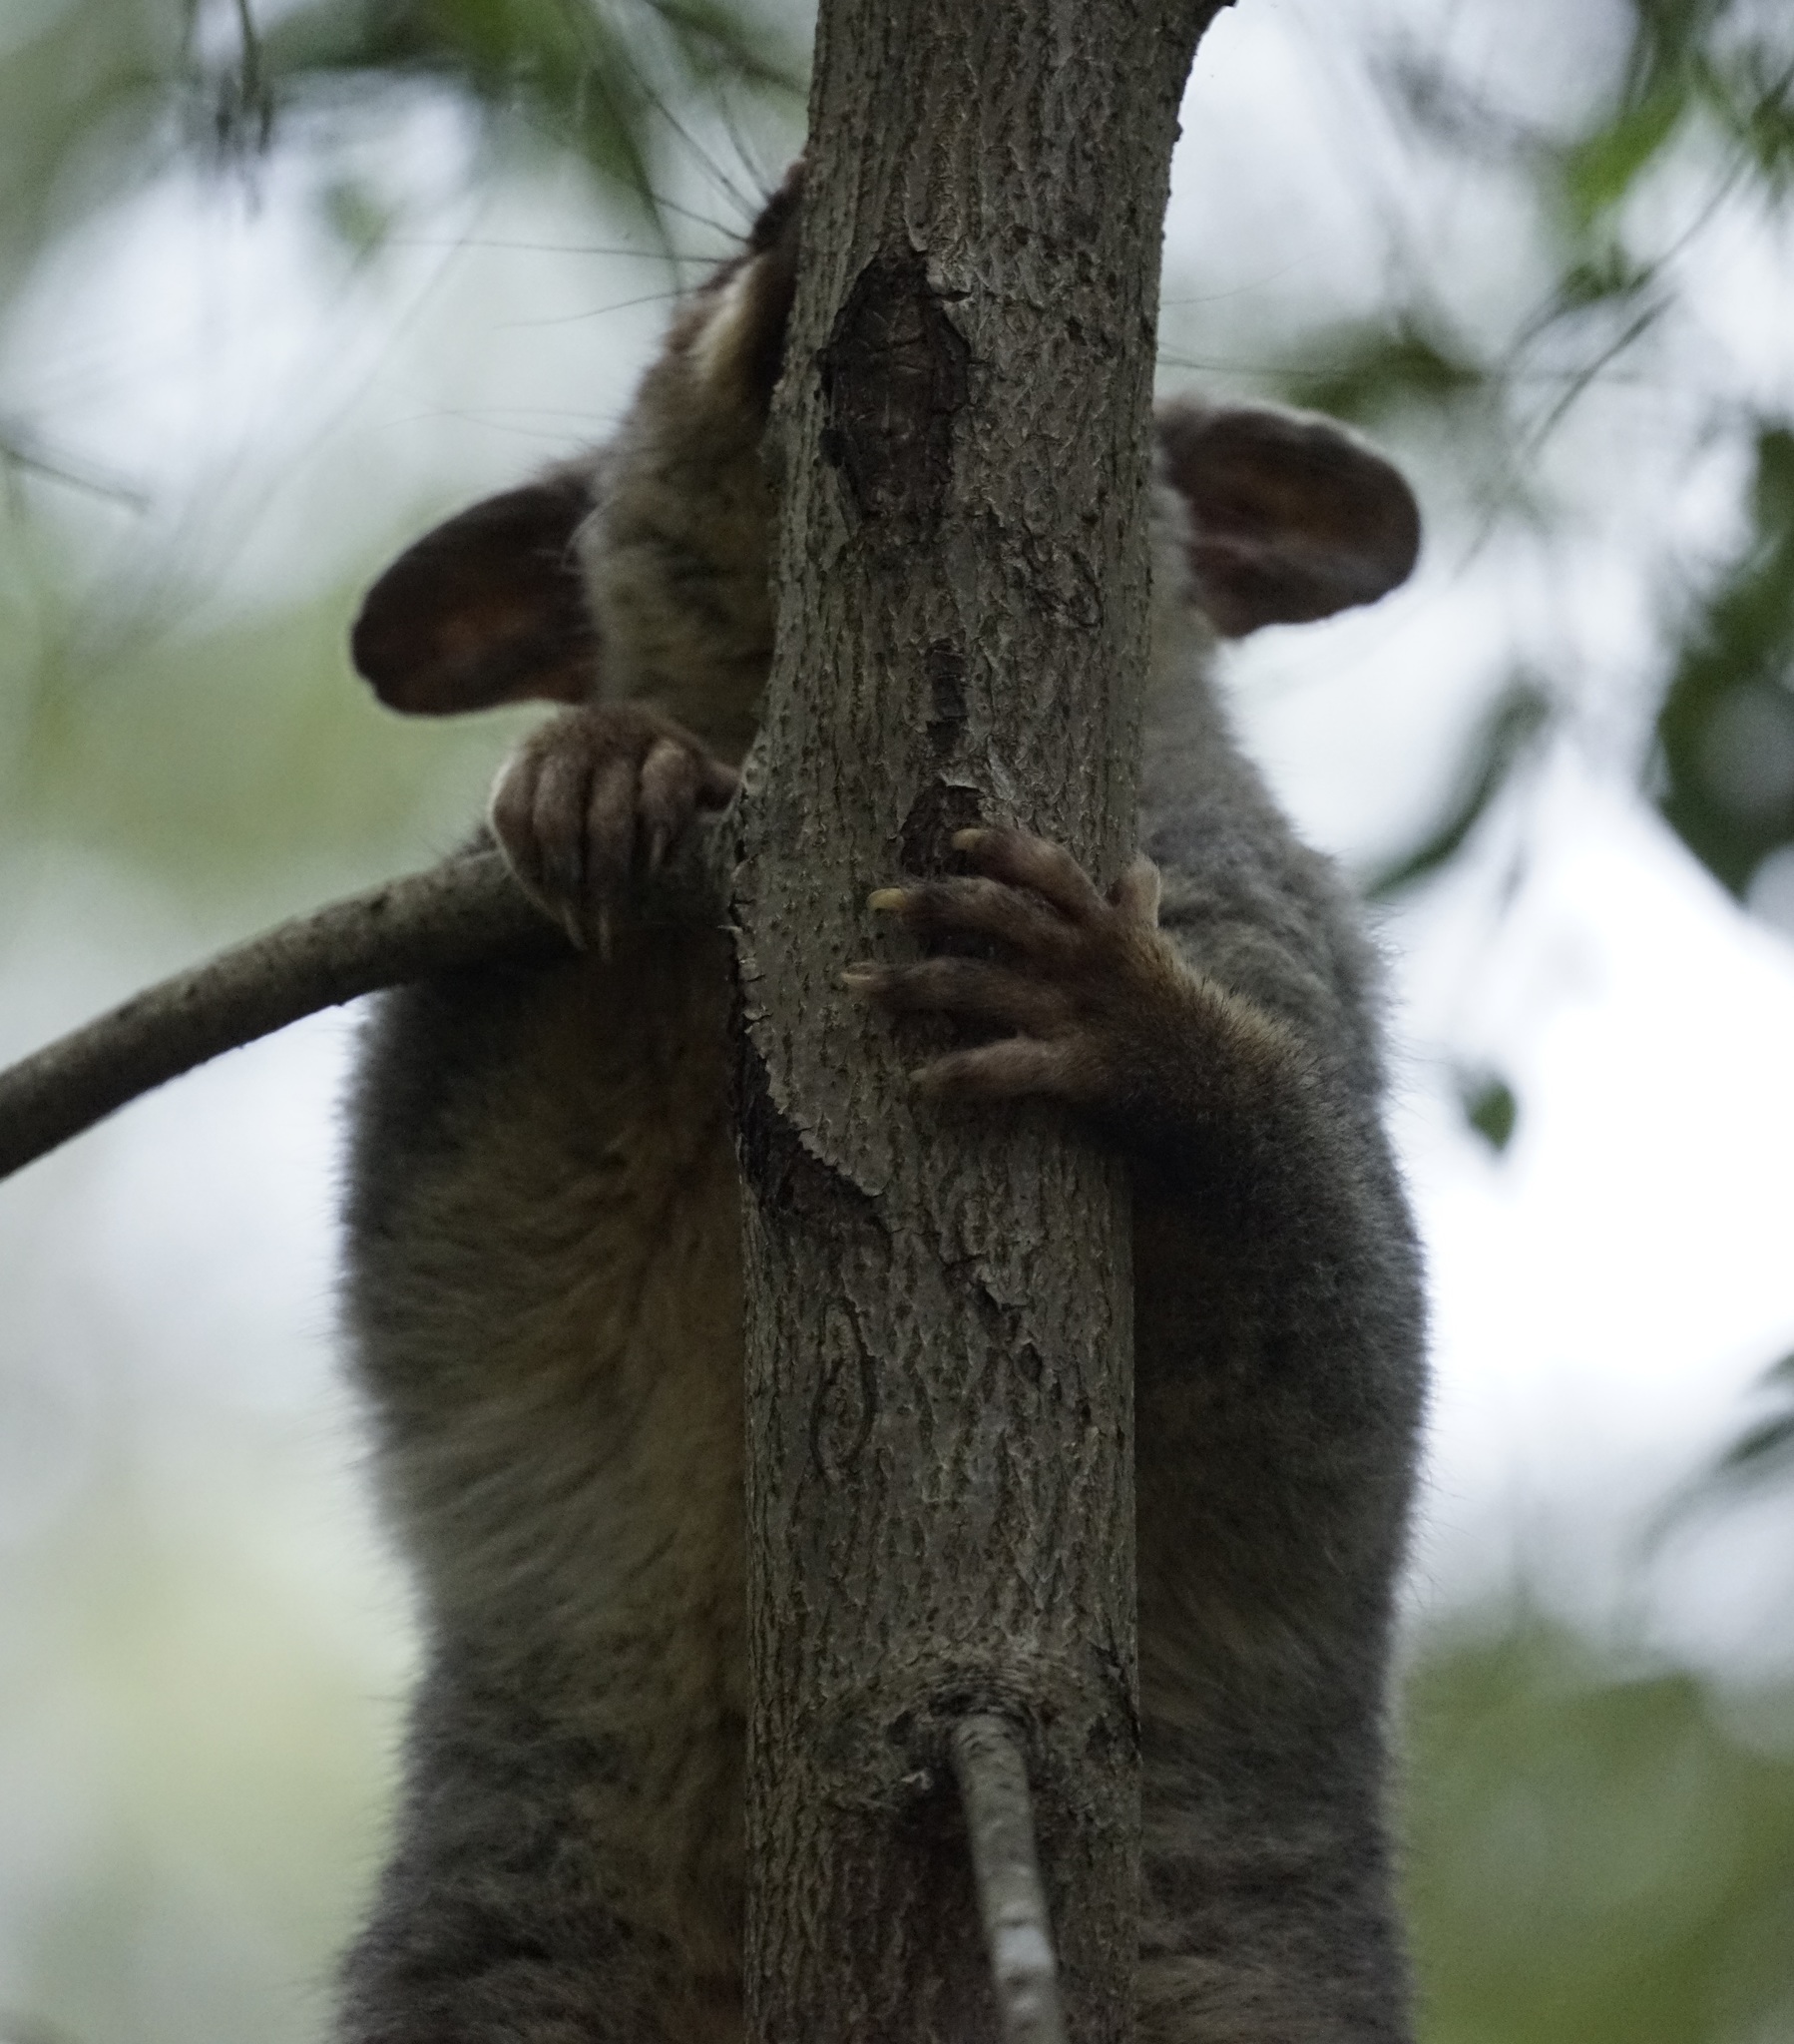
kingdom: Animalia
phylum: Chordata
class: Mammalia
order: Diprotodontia
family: Phalangeridae
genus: Trichosurus
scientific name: Trichosurus vulpecula
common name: Common brushtail
